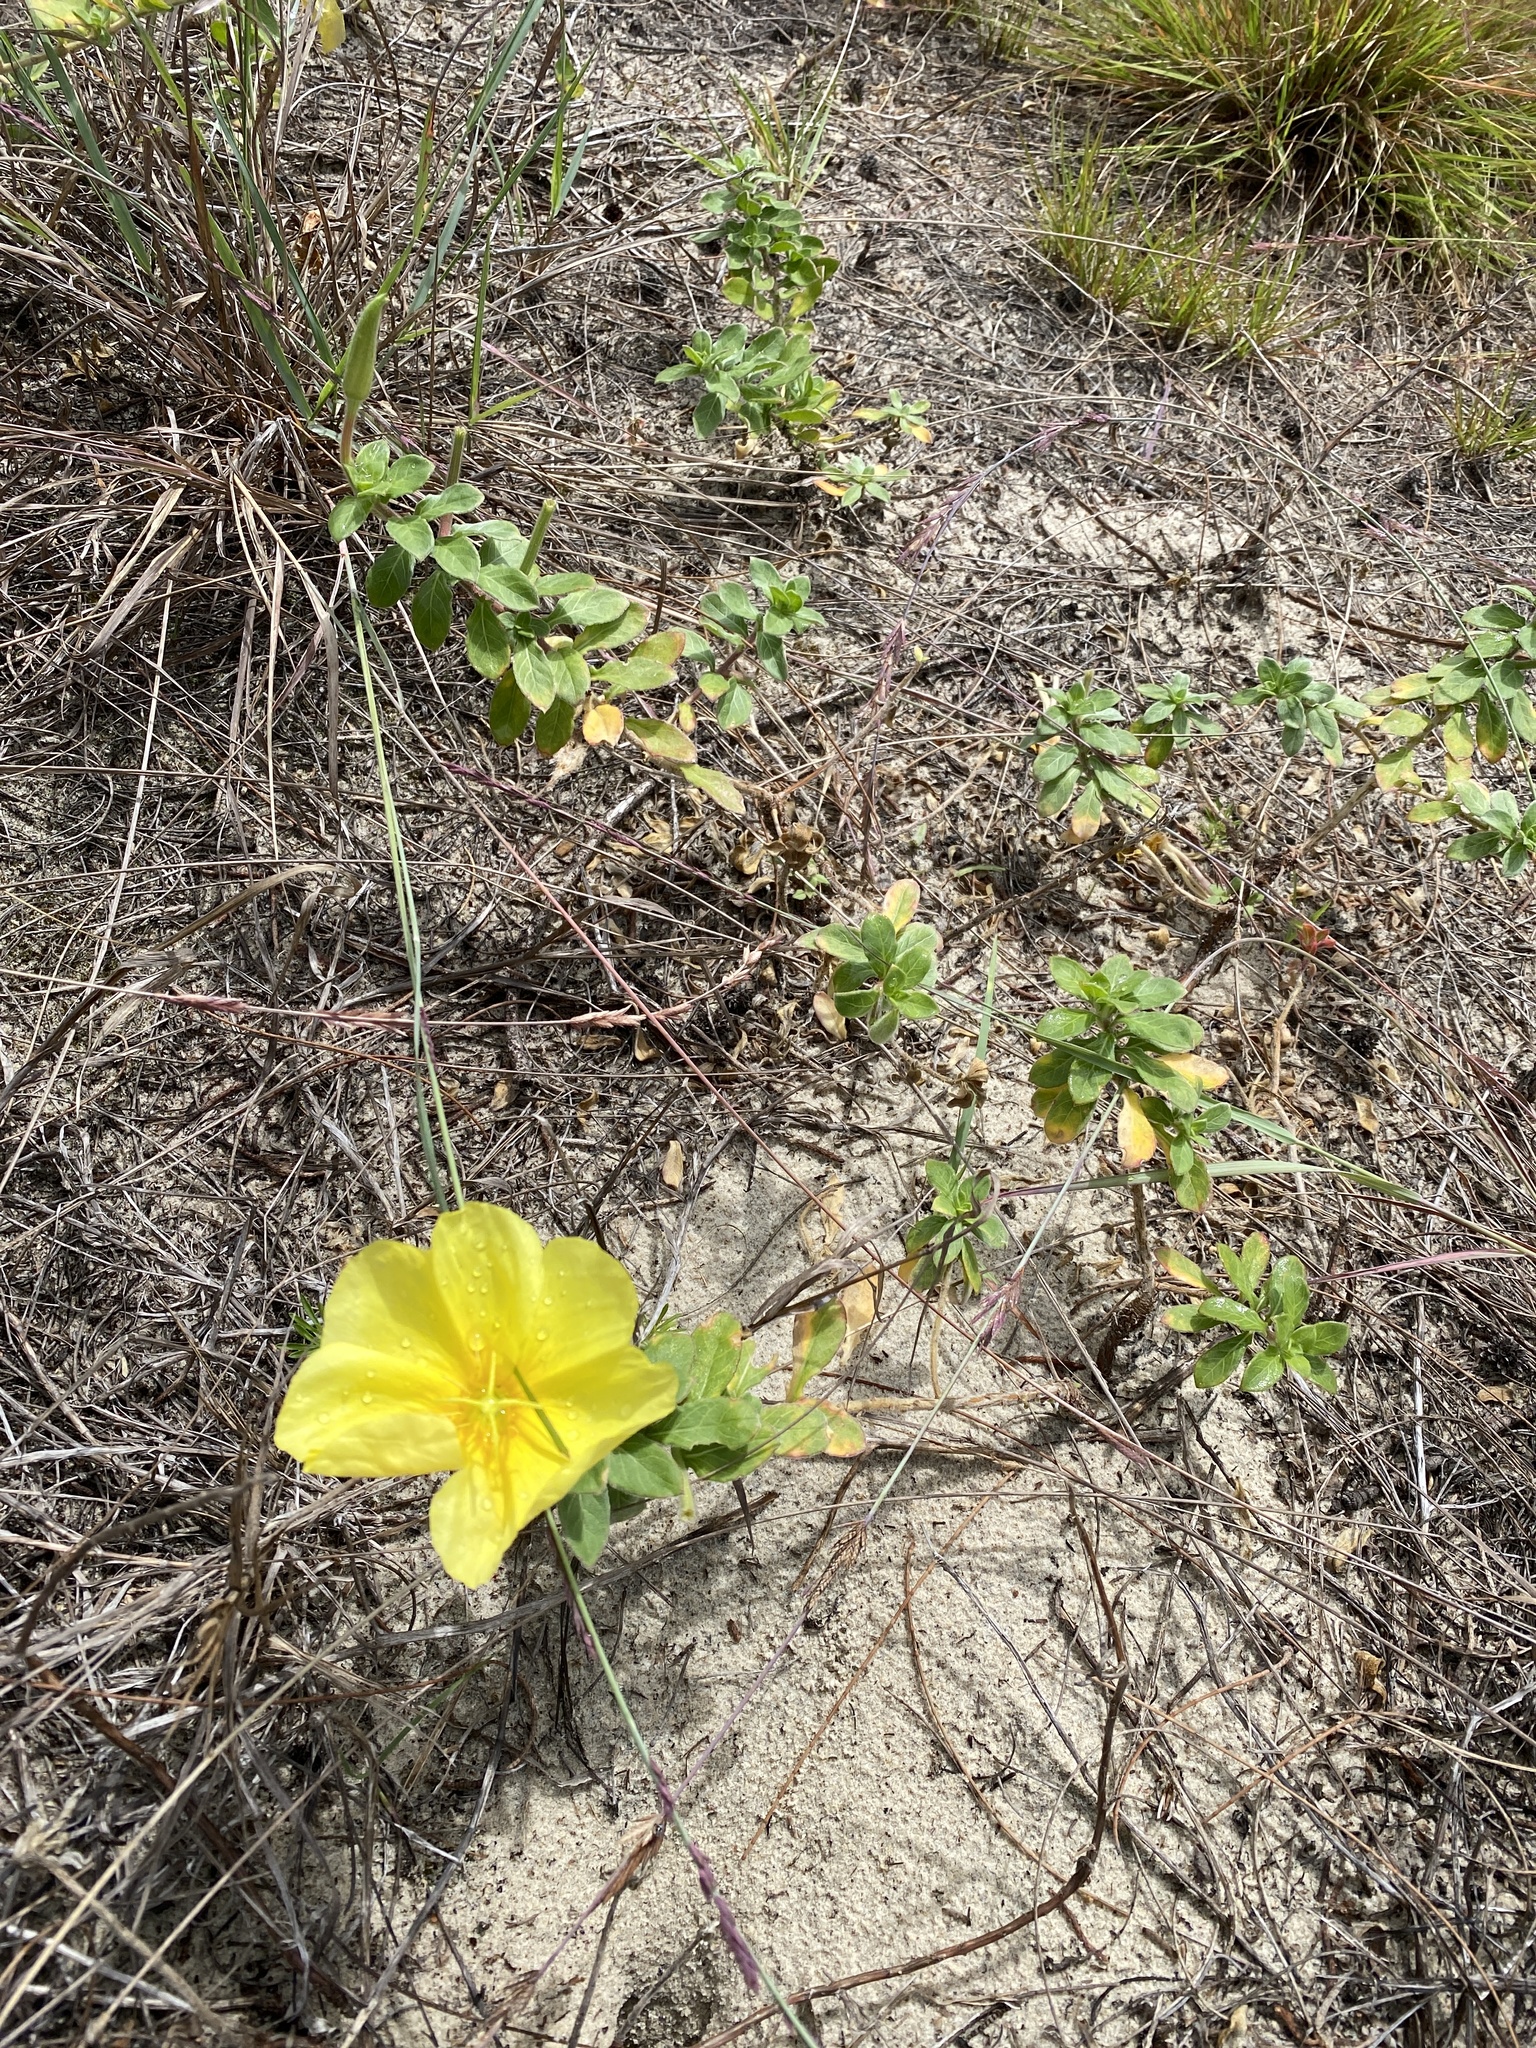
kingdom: Plantae
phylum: Tracheophyta
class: Magnoliopsida
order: Myrtales
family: Onagraceae
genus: Oenothera
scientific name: Oenothera drummondii
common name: Beach evening-primrose
